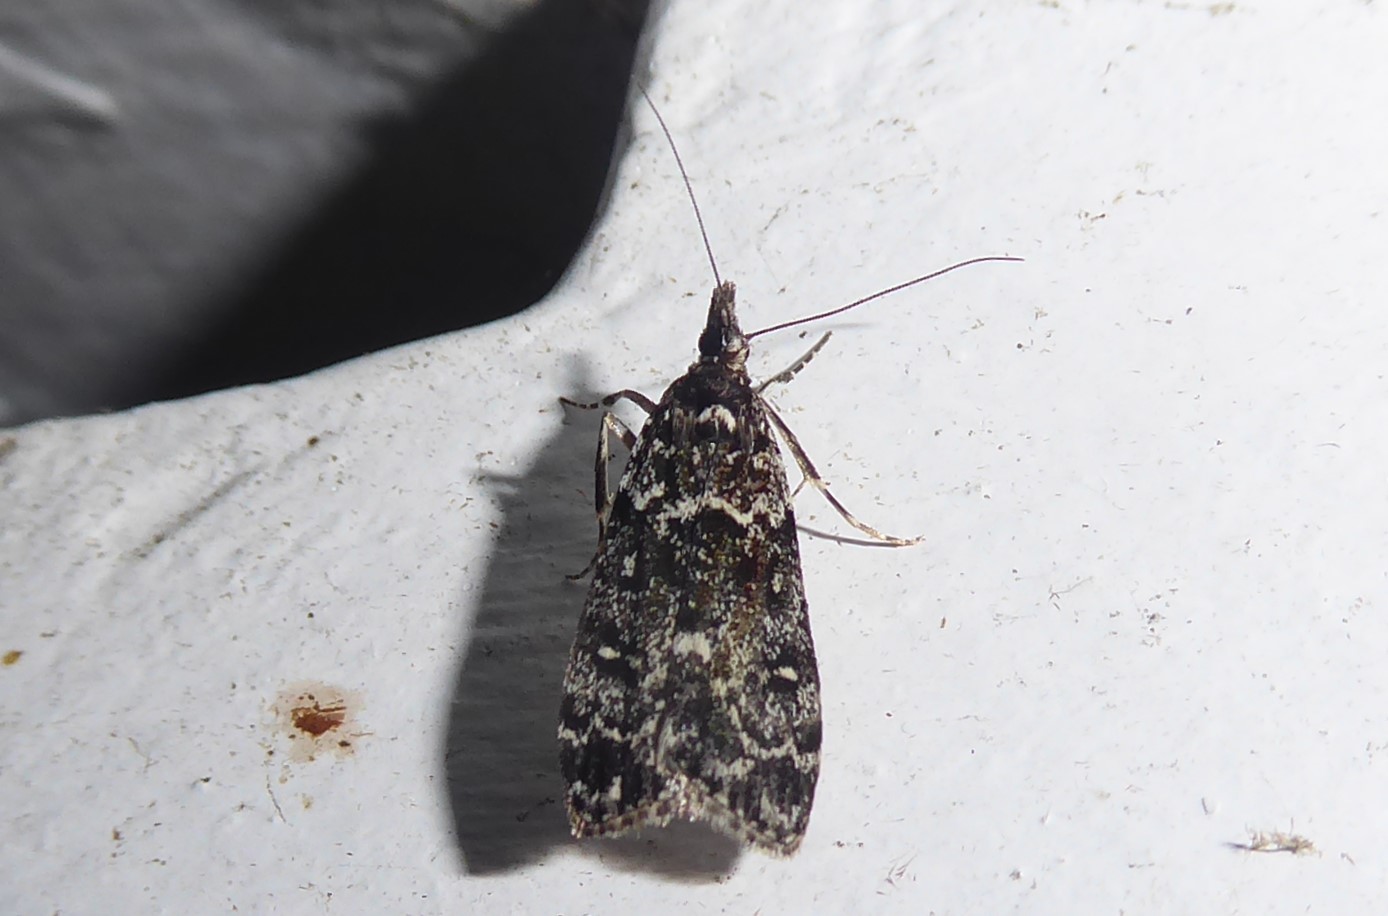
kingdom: Animalia
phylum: Arthropoda
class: Insecta
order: Lepidoptera
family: Crambidae
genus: Eudonia
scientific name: Eudonia philerga
